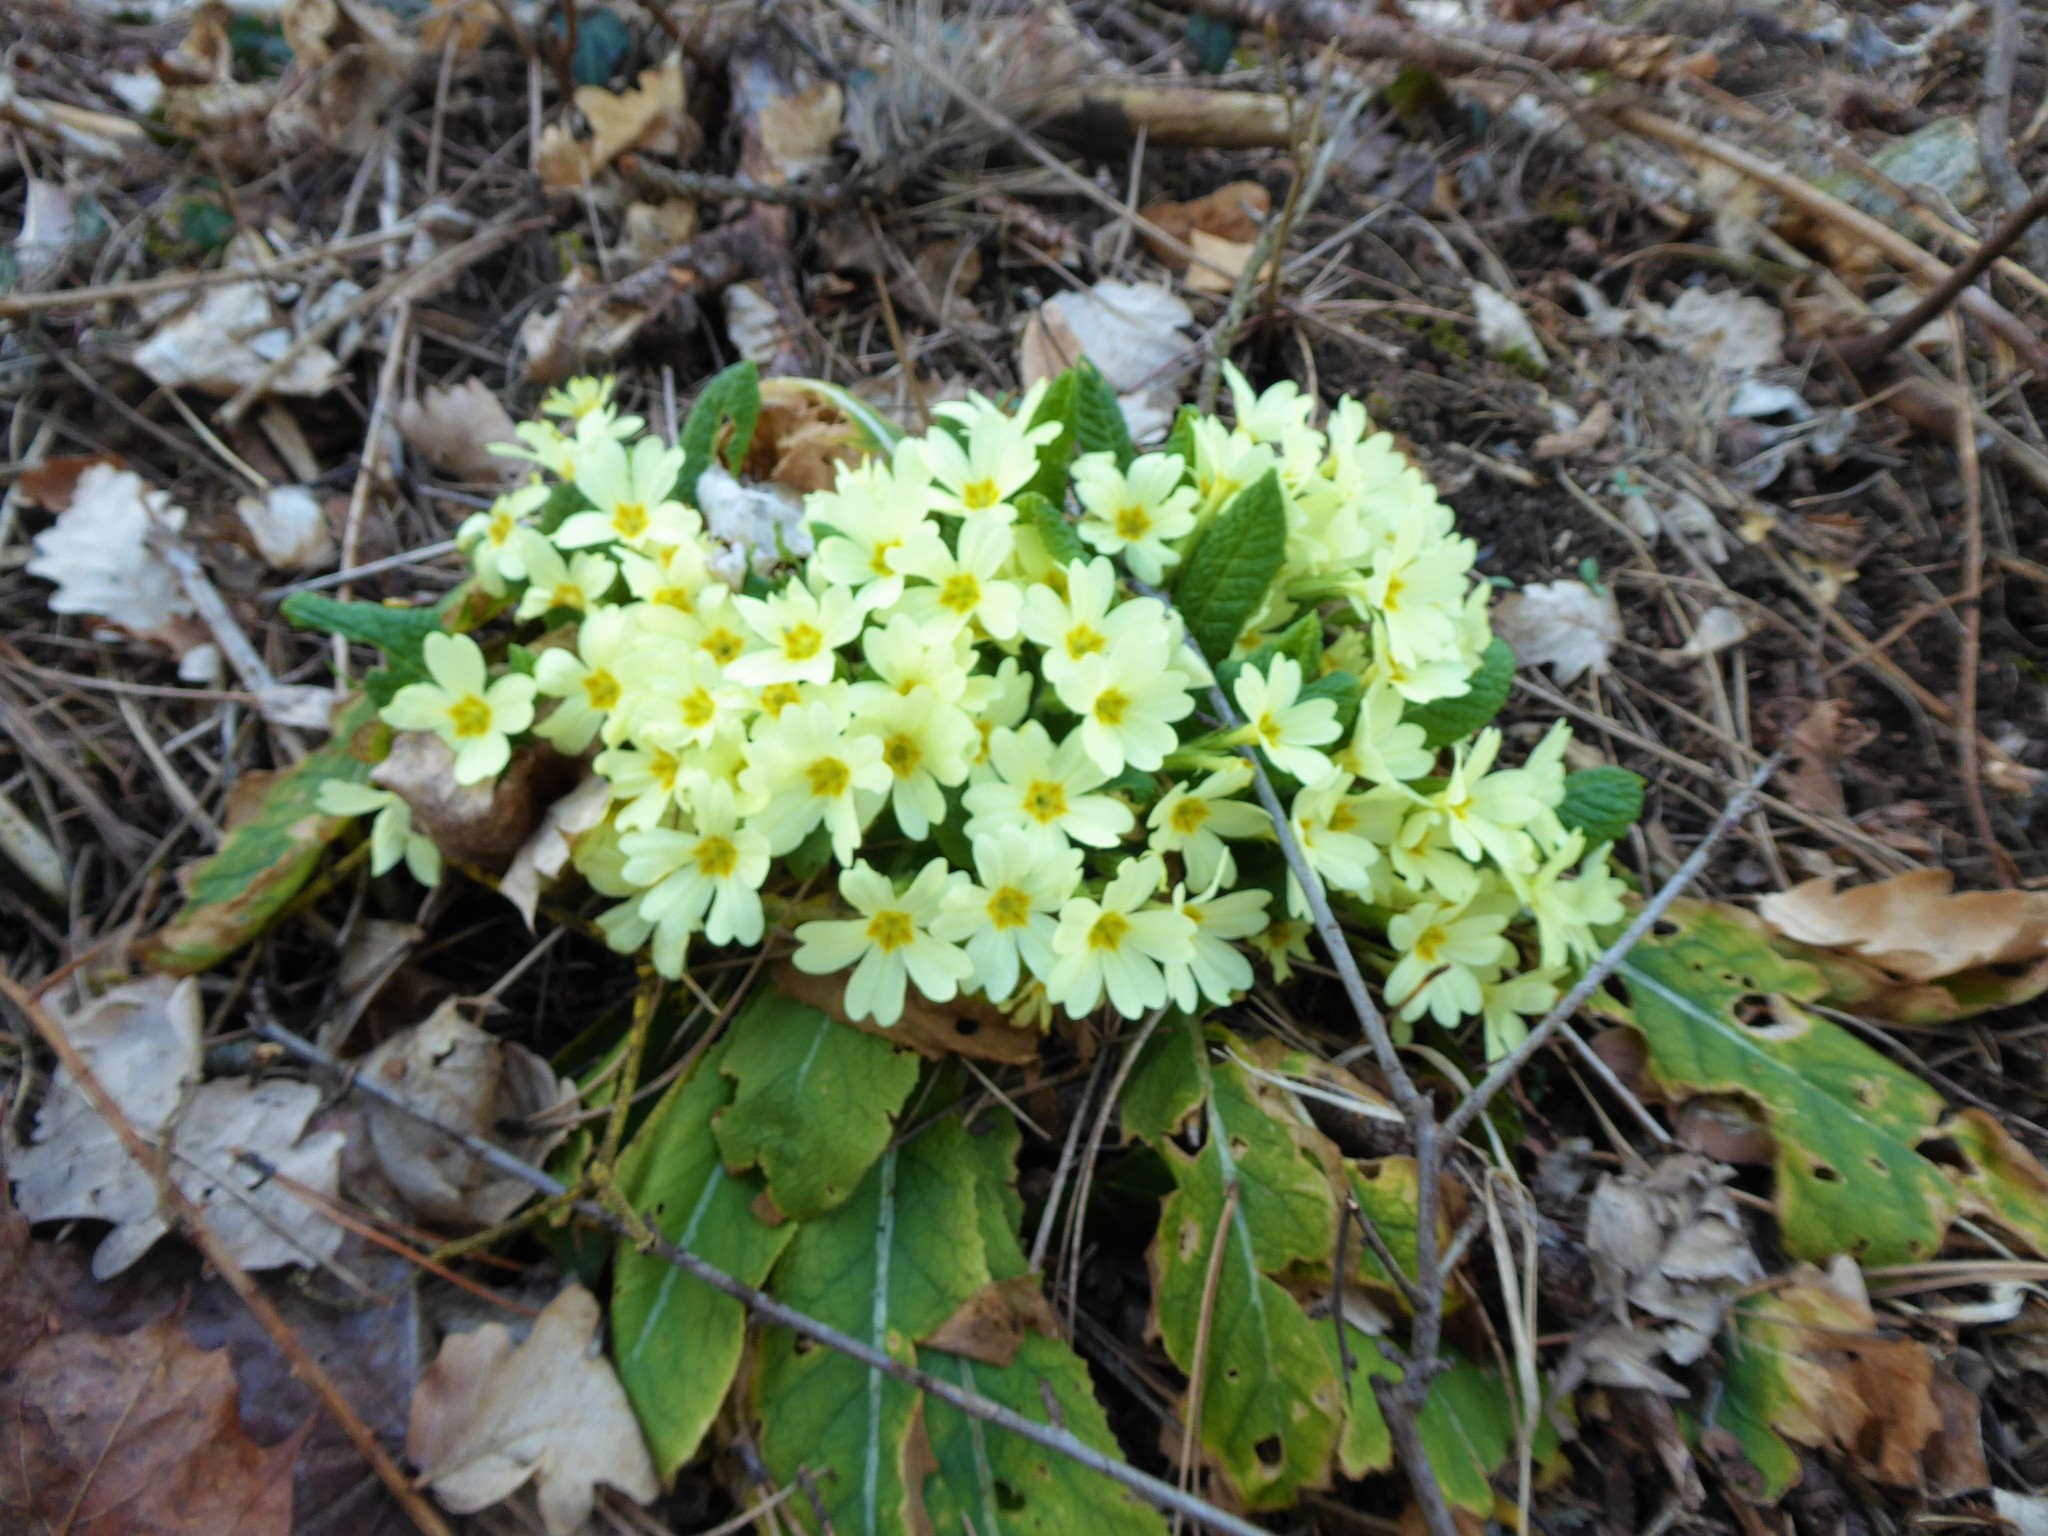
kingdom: Plantae
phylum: Tracheophyta
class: Magnoliopsida
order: Ericales
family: Primulaceae
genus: Primula
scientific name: Primula vulgaris
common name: Primrose
